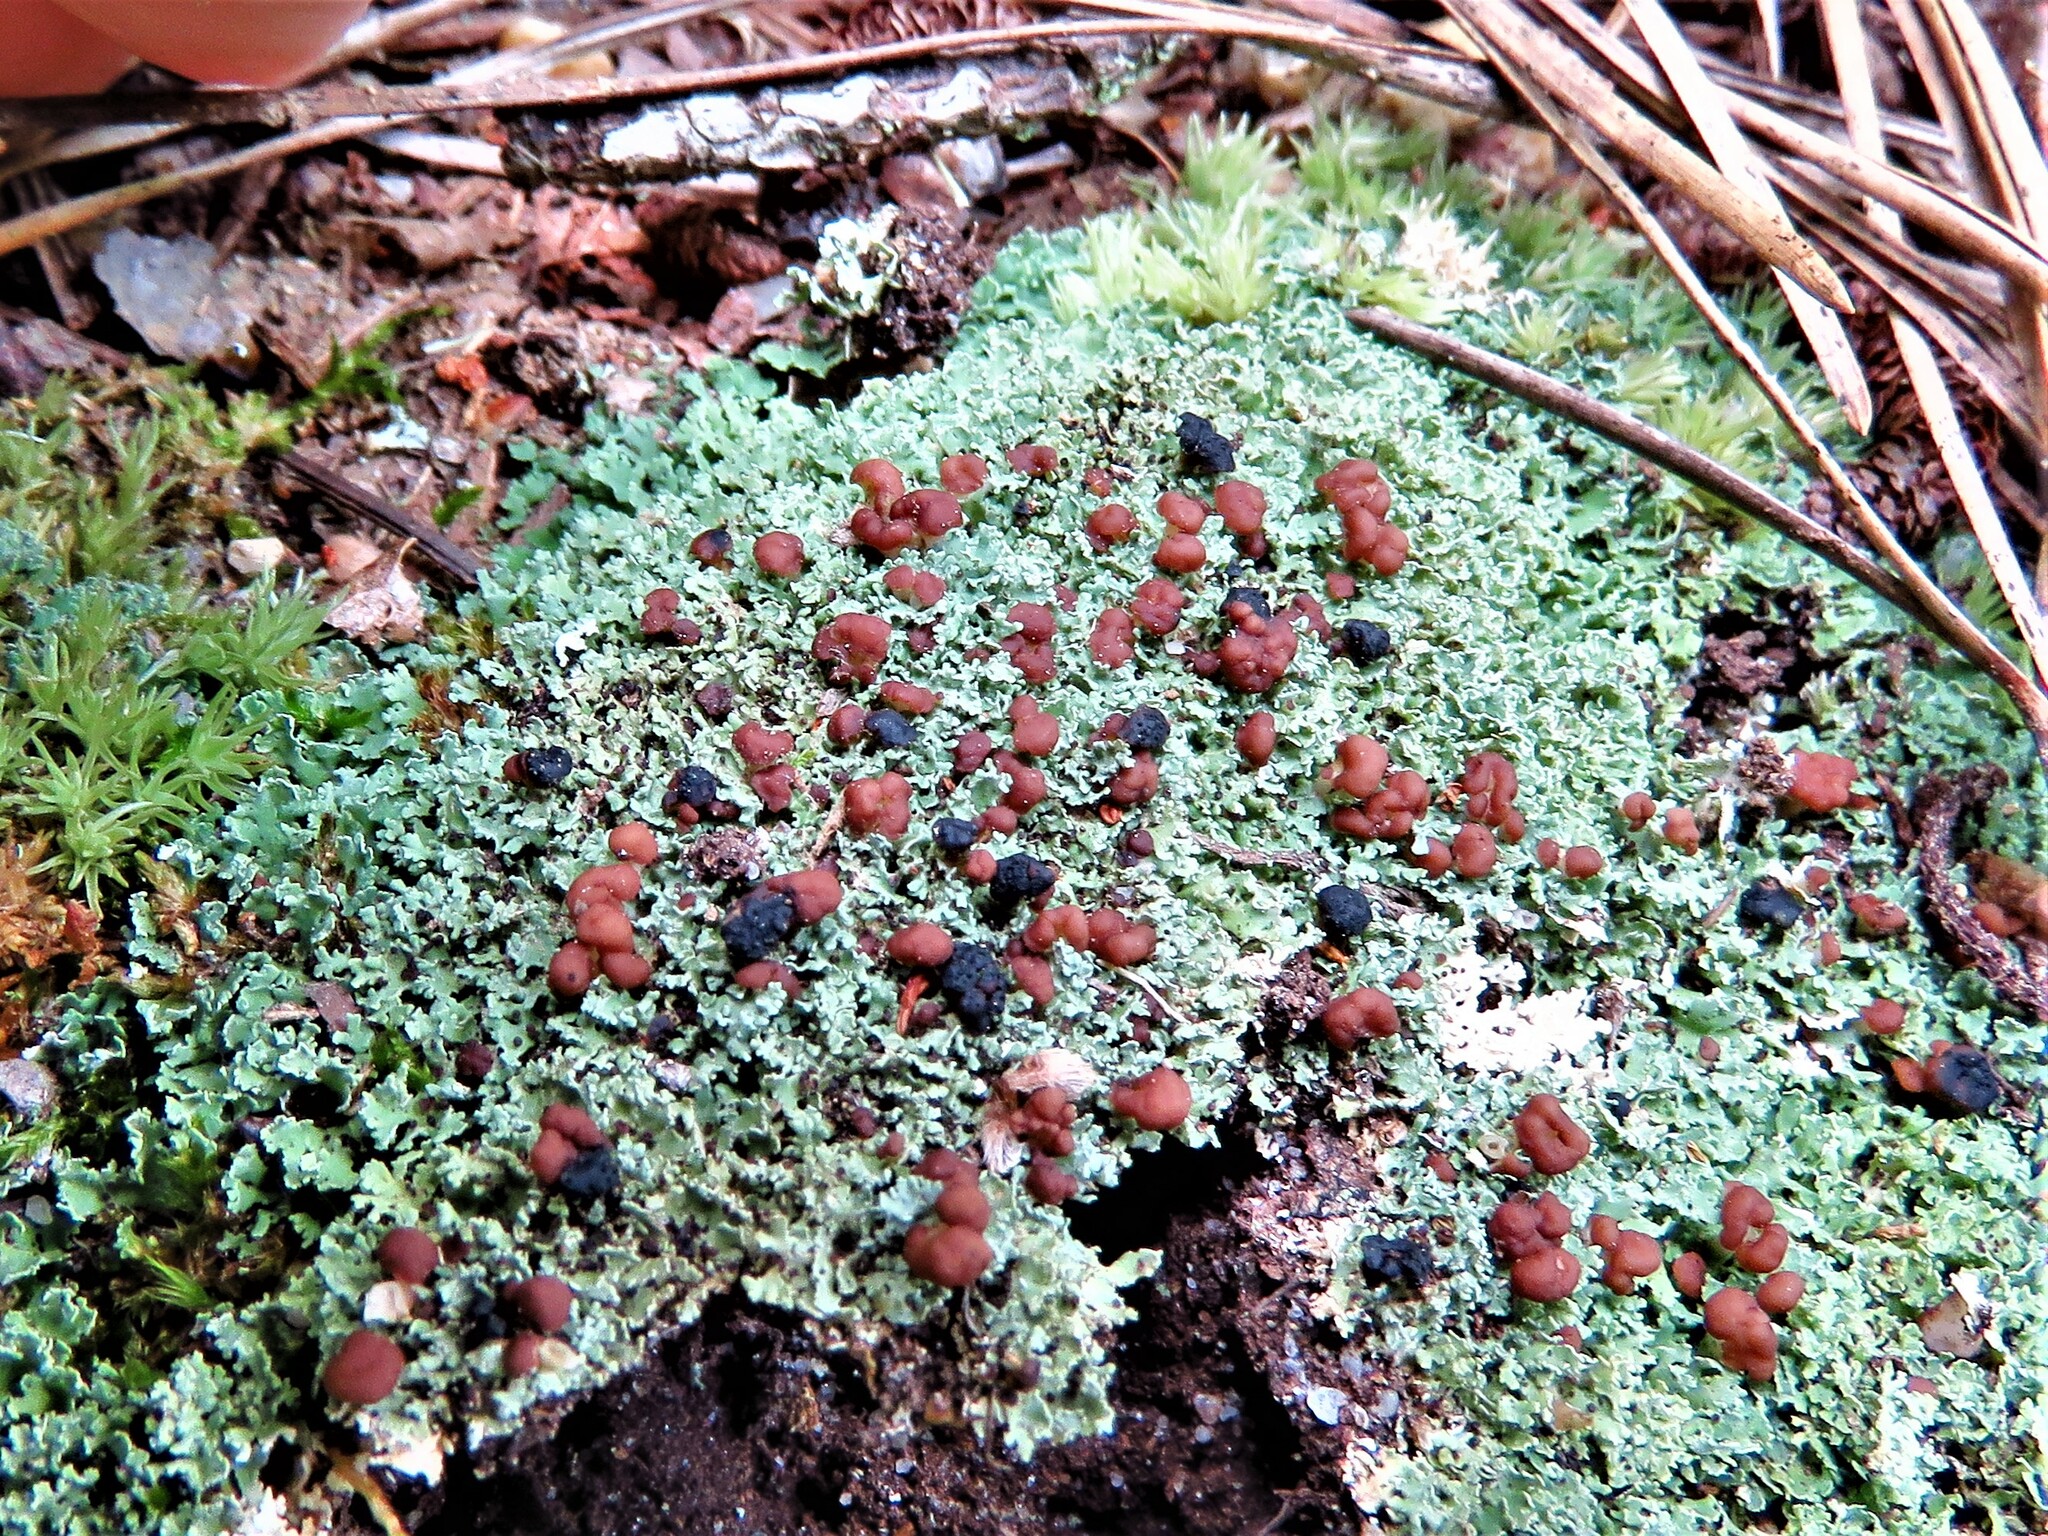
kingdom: Fungi
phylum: Ascomycota
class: Lecanoromycetes
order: Lecanorales
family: Cladoniaceae
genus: Cladonia
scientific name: Cladonia caespiticia
